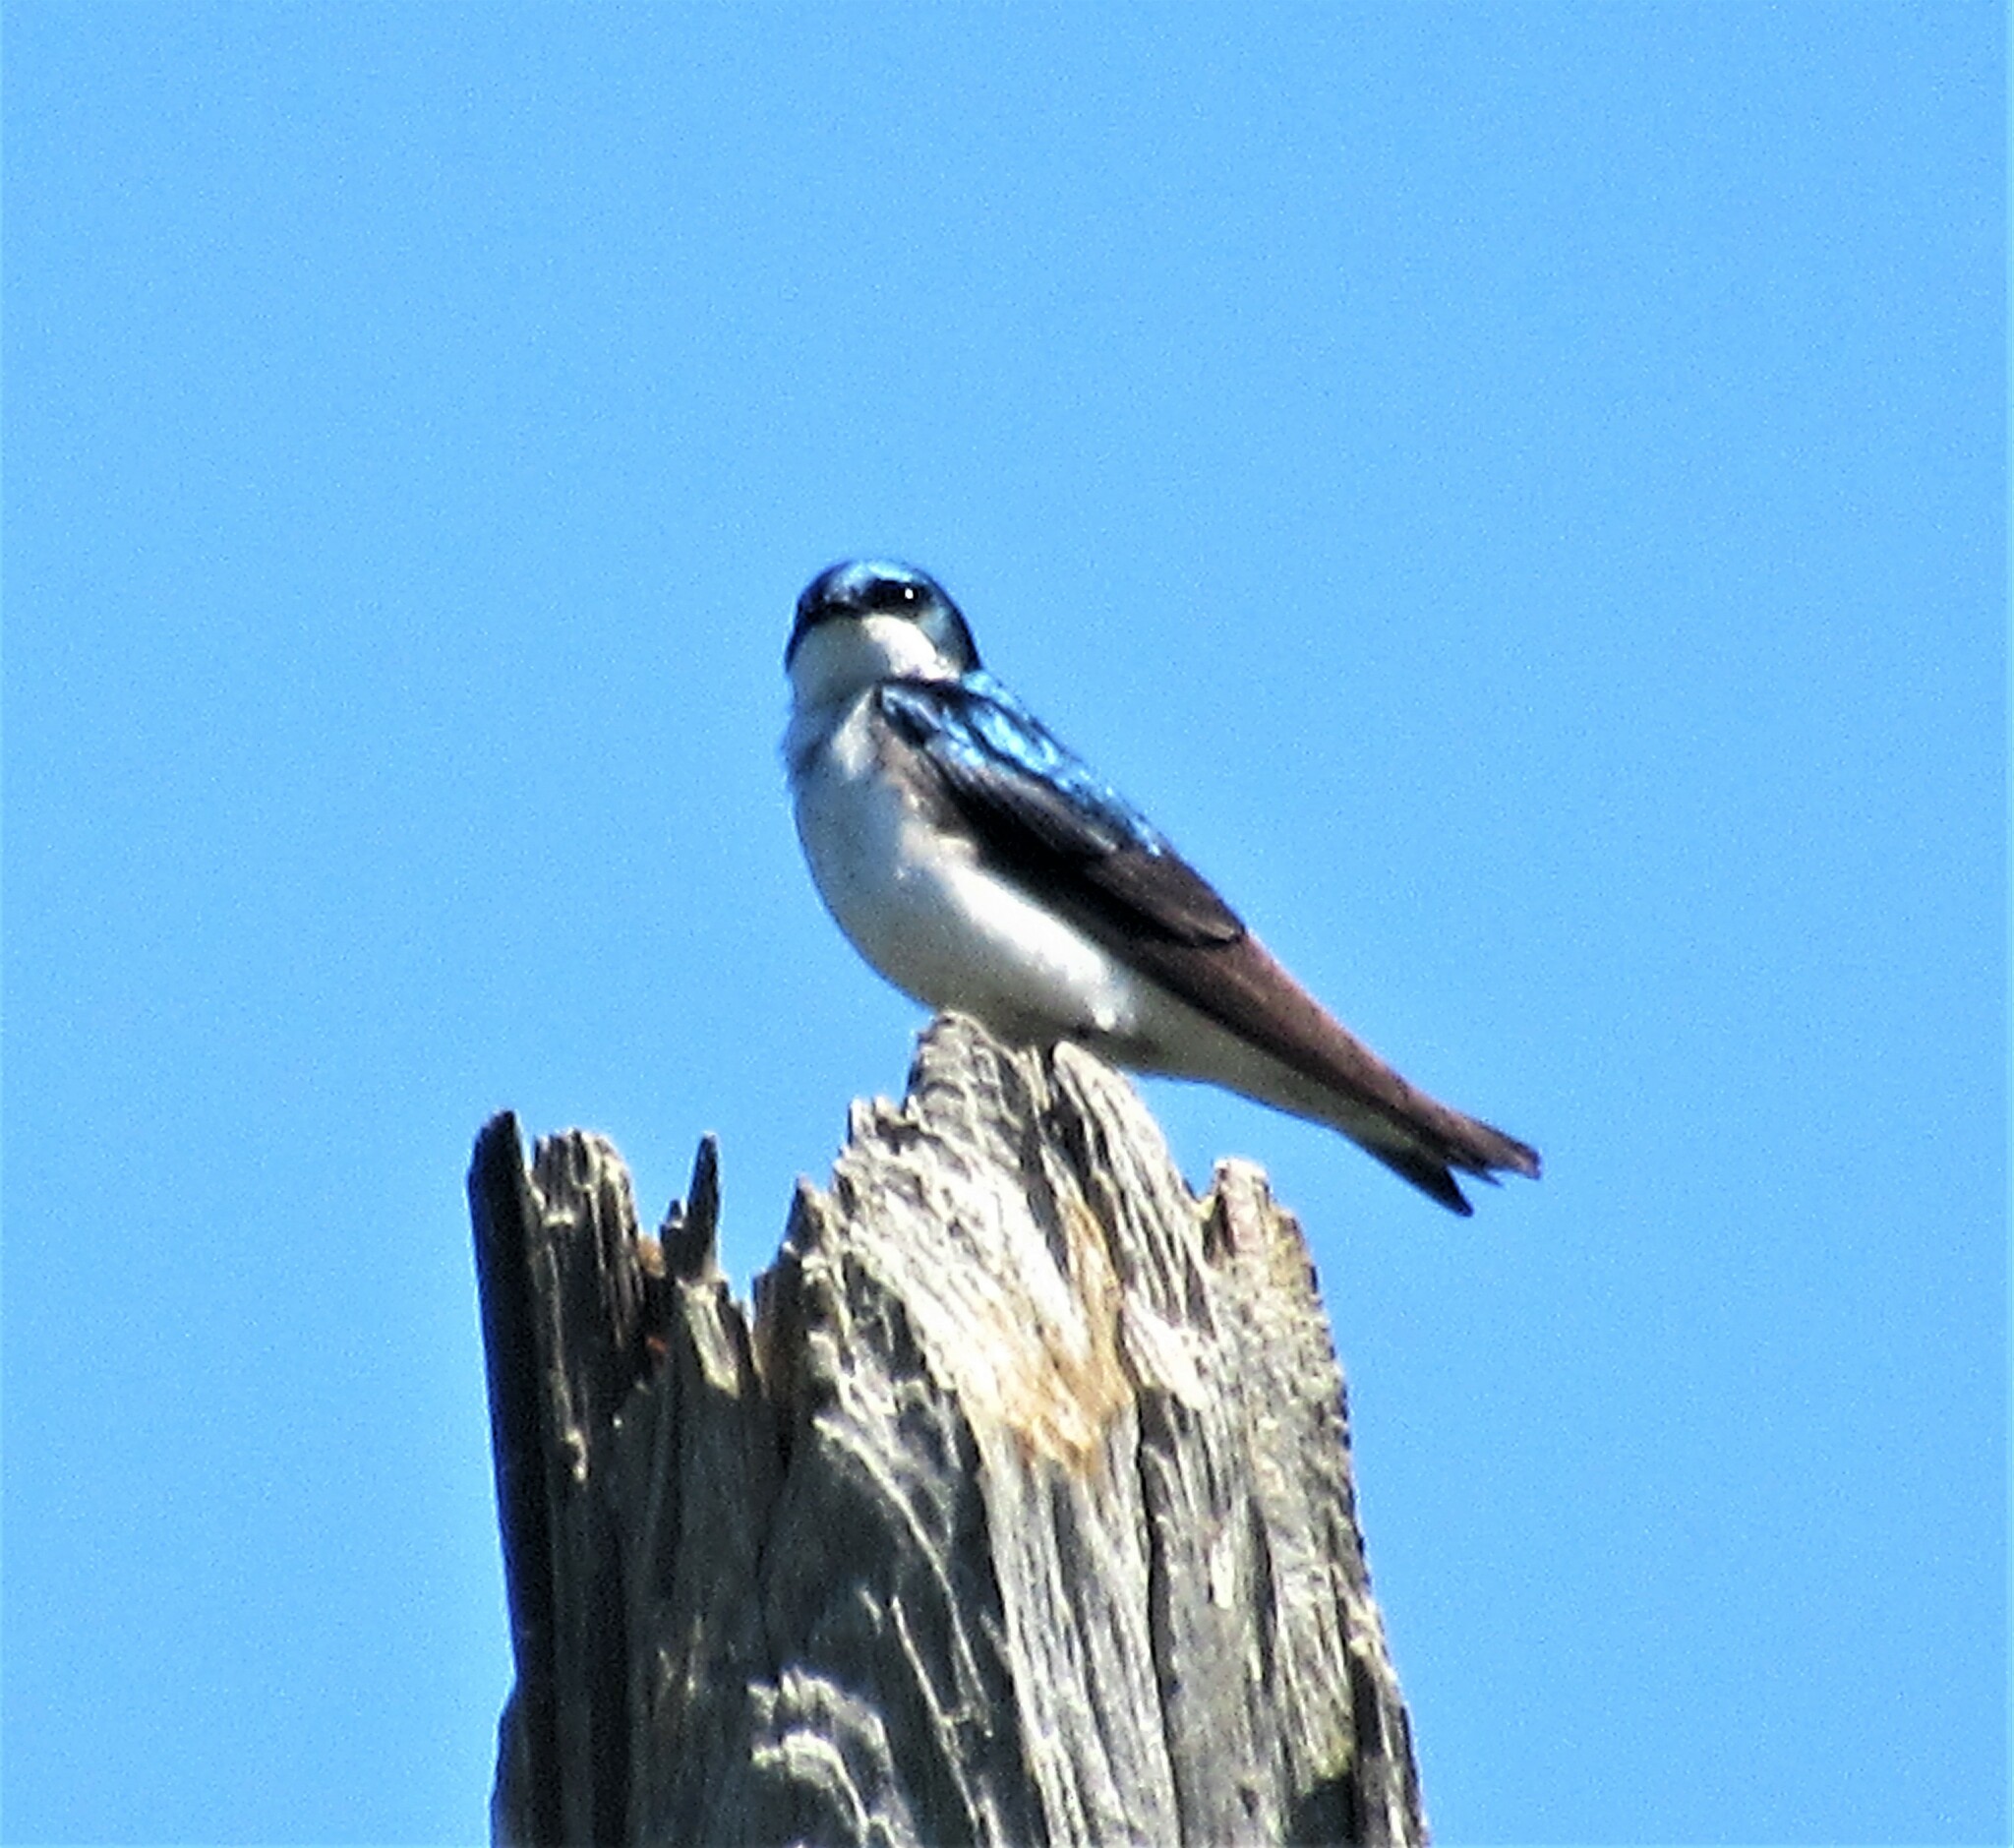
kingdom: Animalia
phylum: Chordata
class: Aves
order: Passeriformes
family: Hirundinidae
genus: Tachycineta
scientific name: Tachycineta bicolor
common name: Tree swallow
